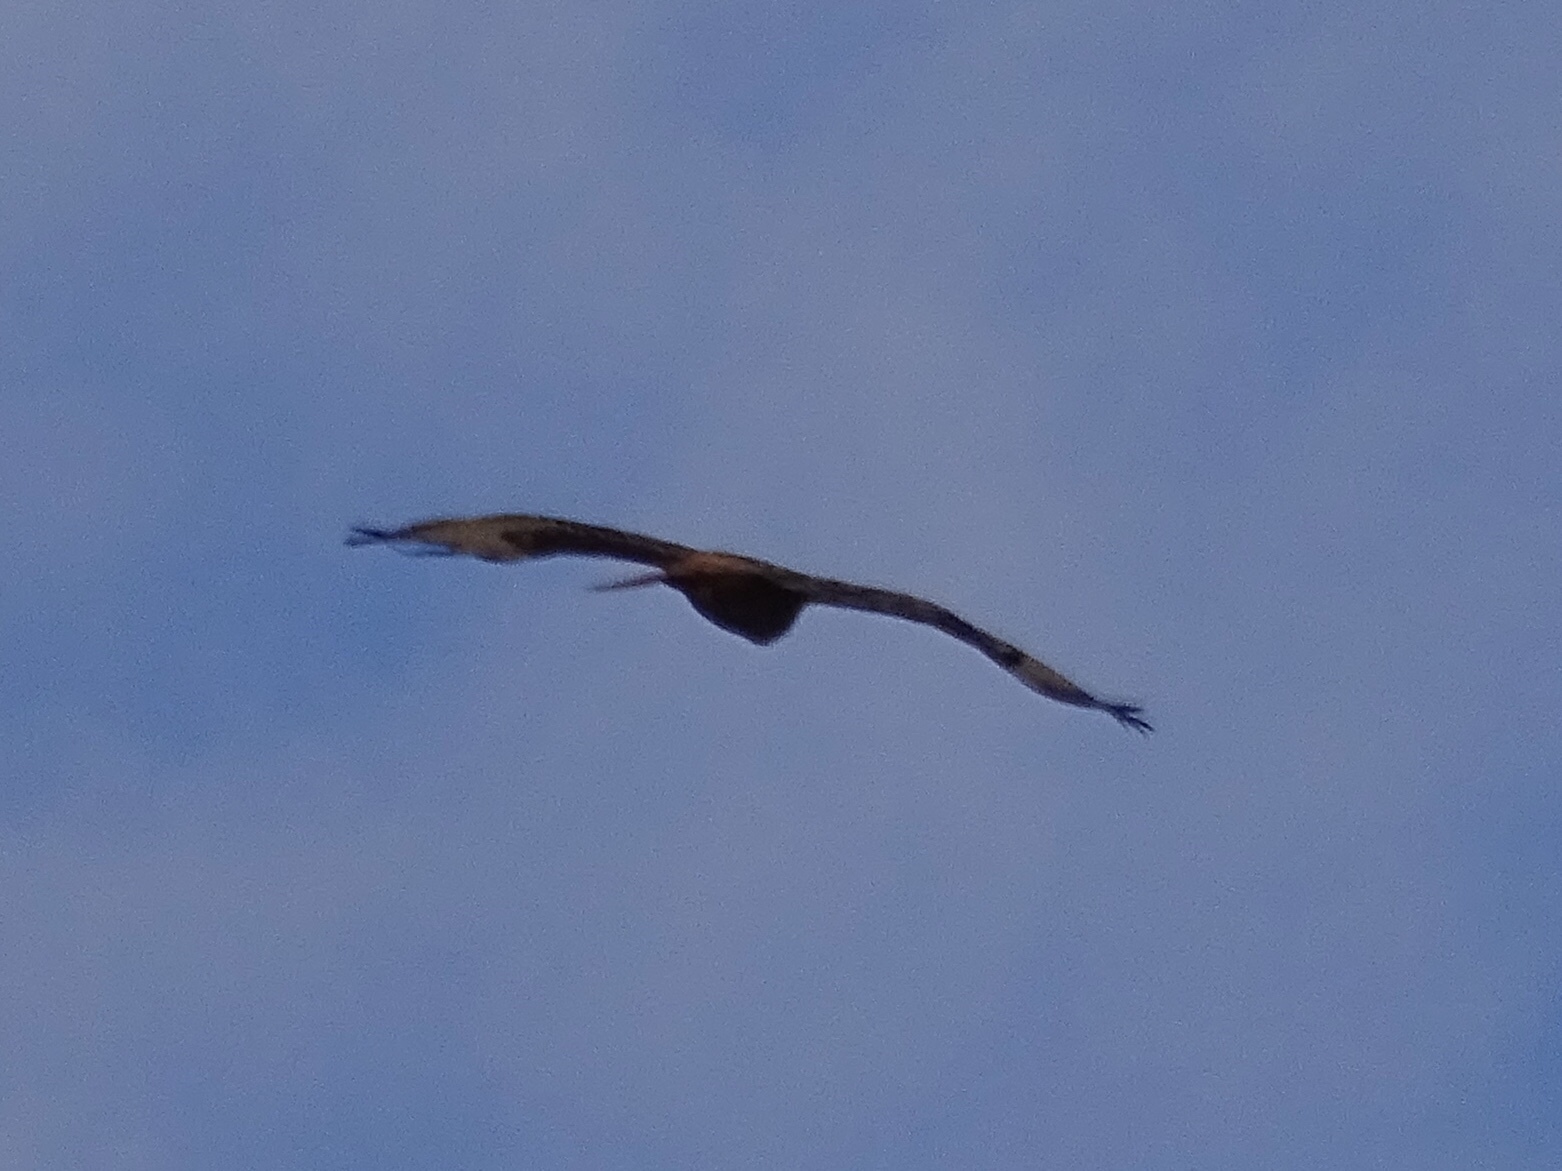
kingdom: Animalia
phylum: Chordata
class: Aves
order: Accipitriformes
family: Accipitridae
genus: Buteo
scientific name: Buteo jamaicensis
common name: Red-tailed hawk
